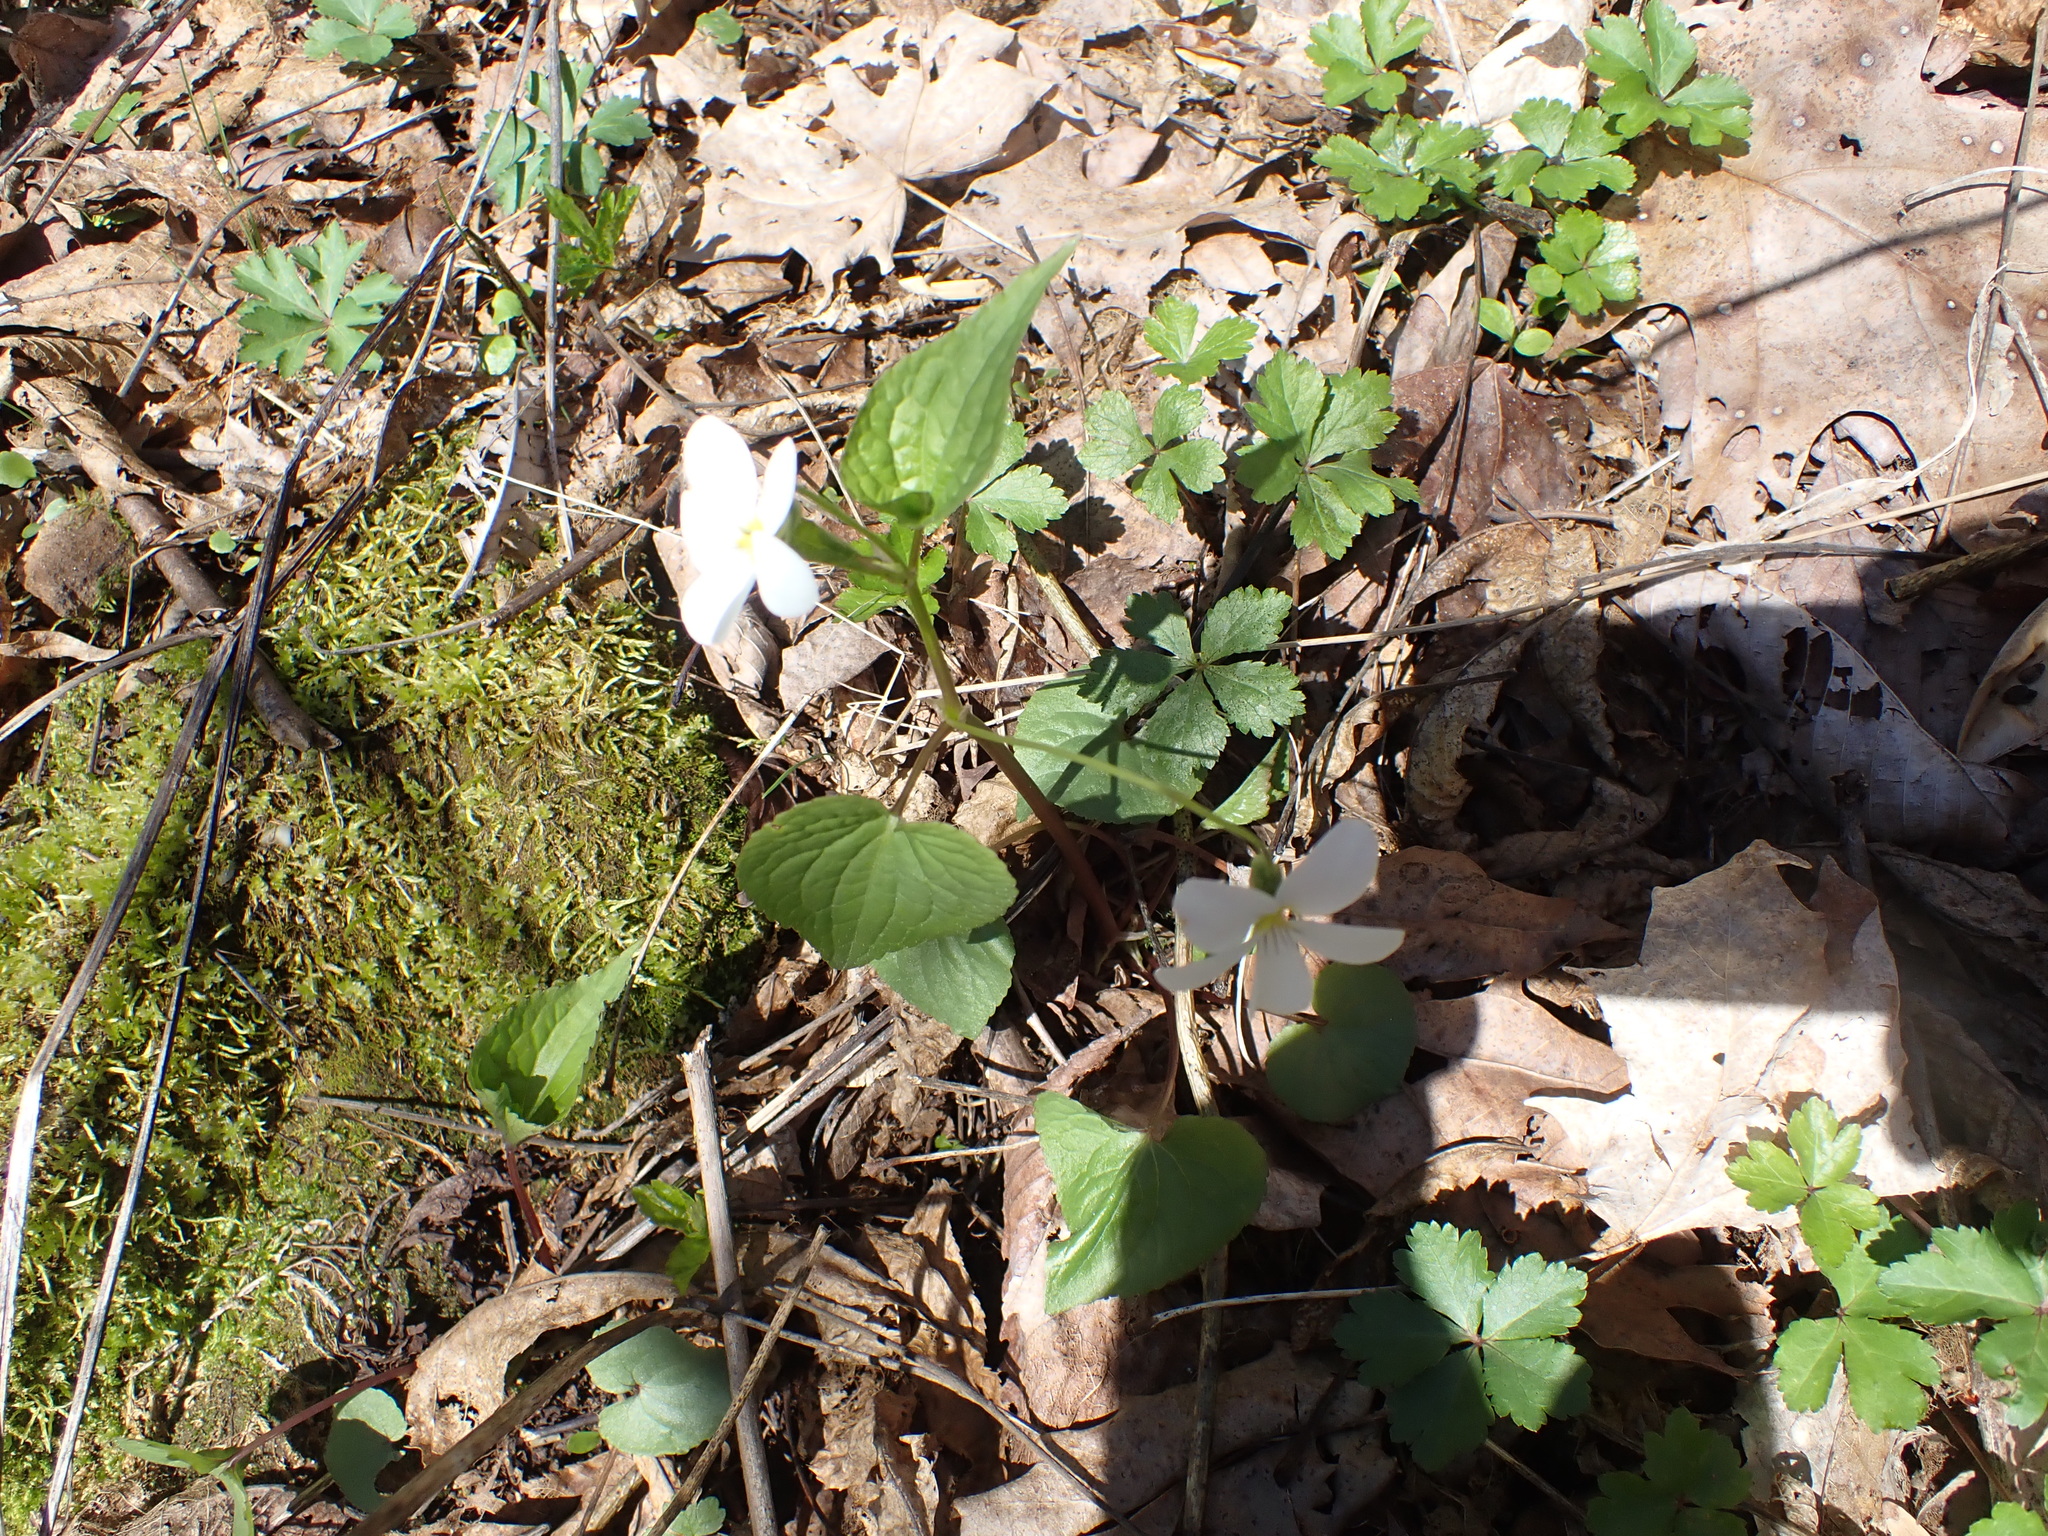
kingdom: Plantae
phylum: Tracheophyta
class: Magnoliopsida
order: Malpighiales
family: Violaceae
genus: Viola
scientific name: Viola canadensis
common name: Canada violet
